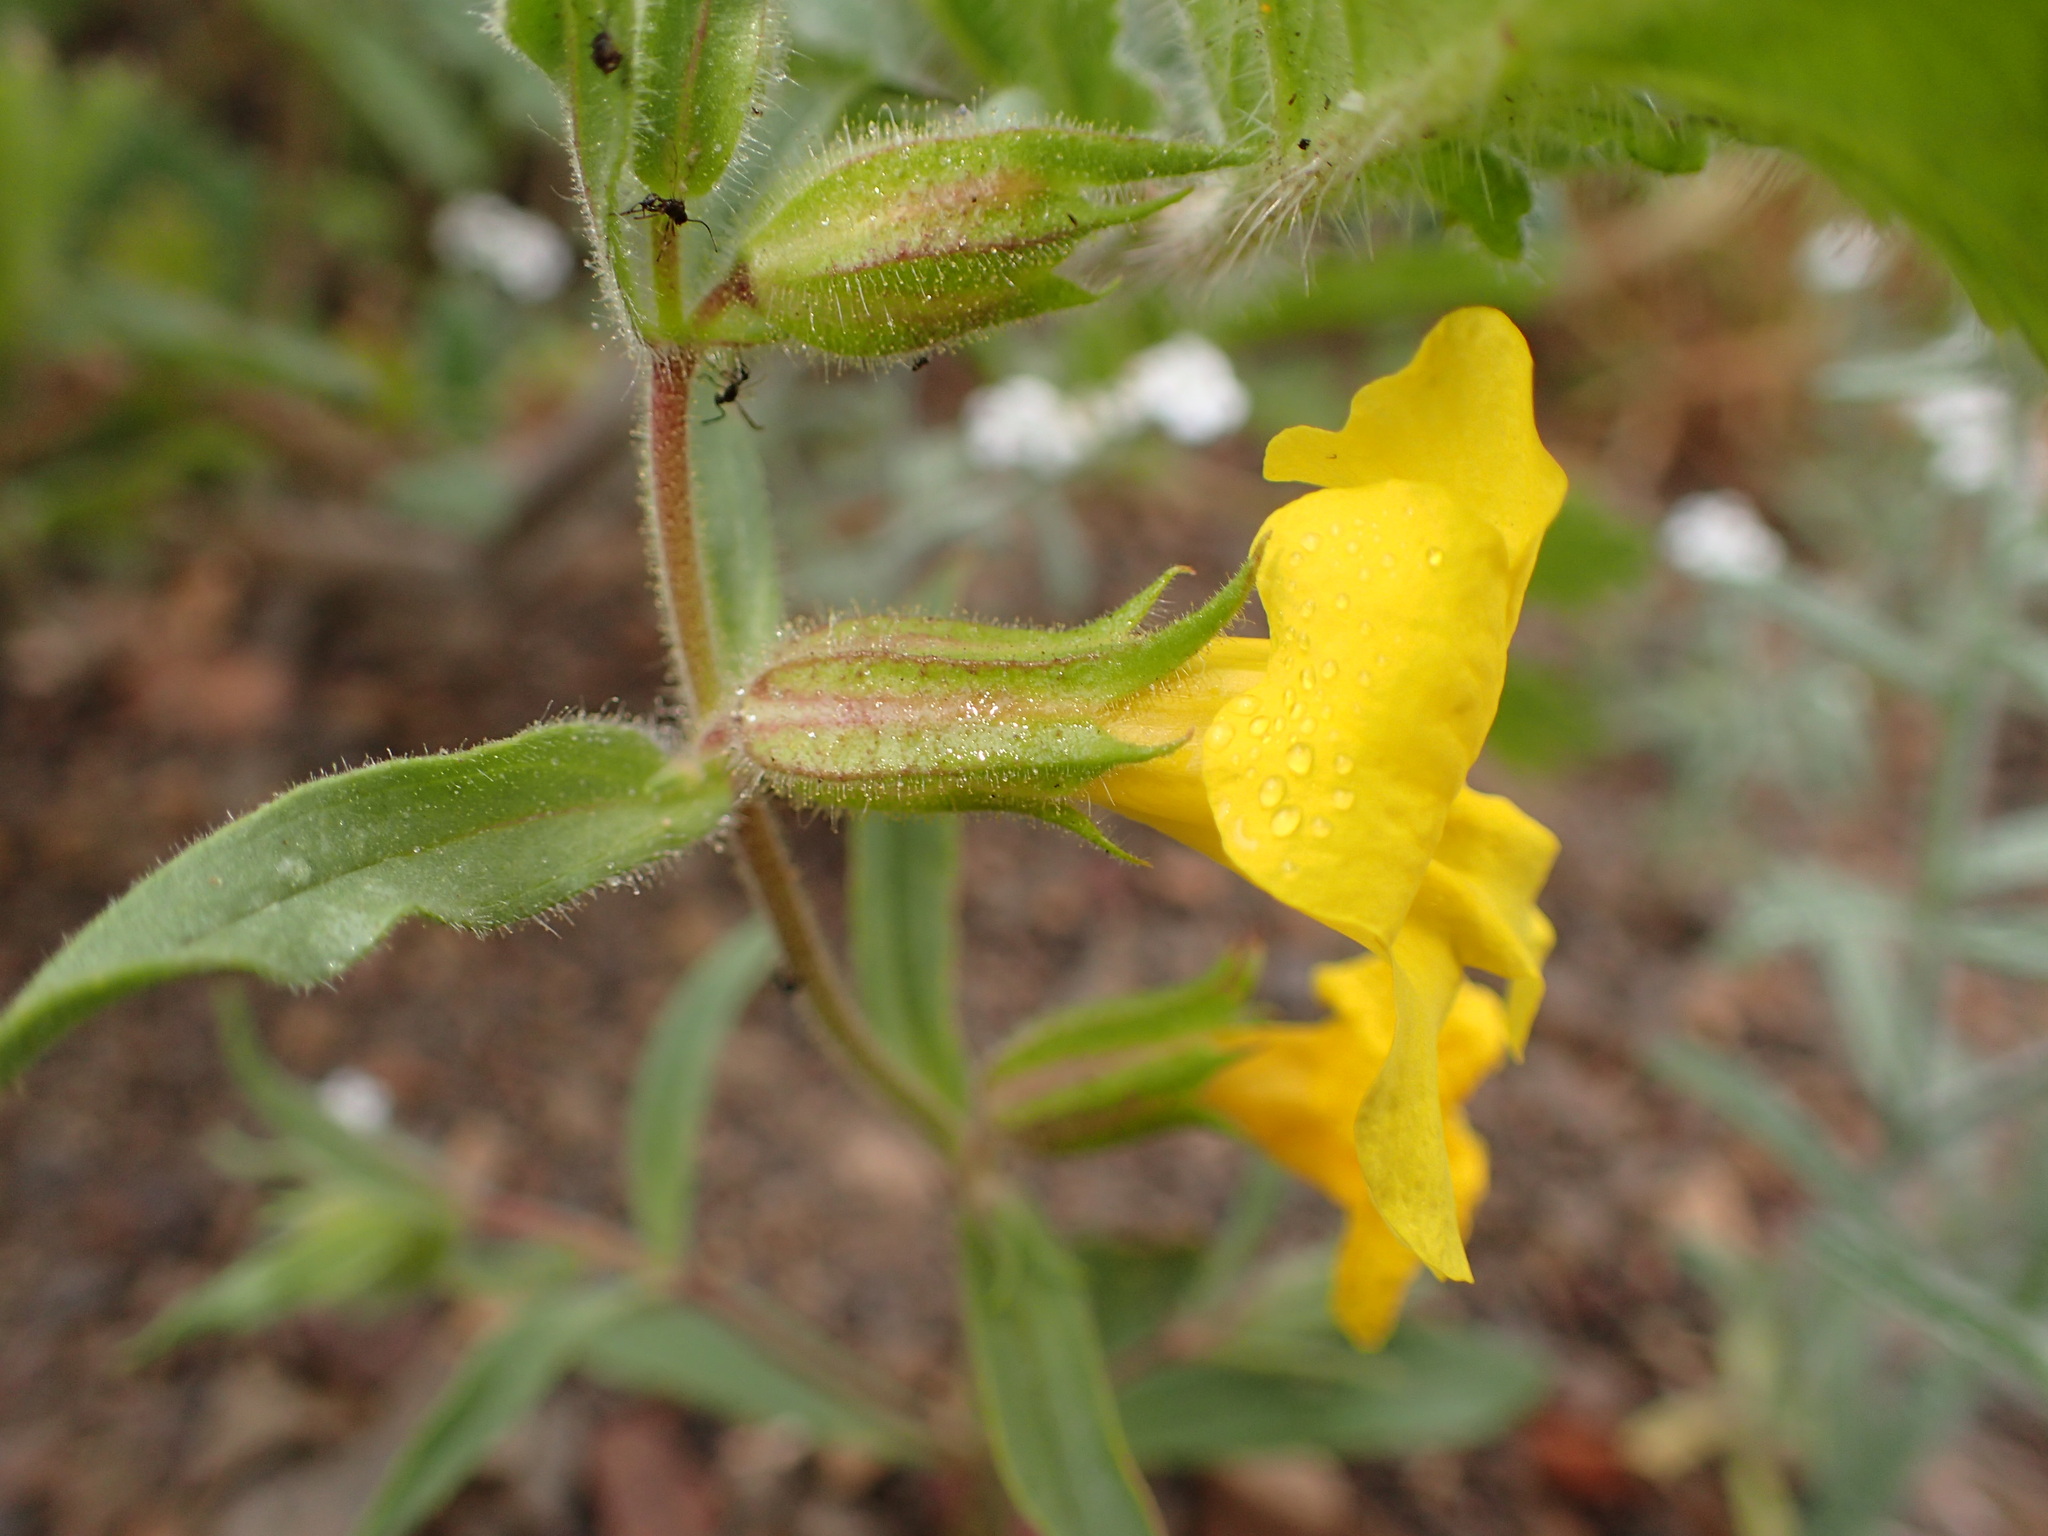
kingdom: Plantae
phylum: Tracheophyta
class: Magnoliopsida
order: Lamiales
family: Phrymaceae
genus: Diplacus
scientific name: Diplacus brevipes
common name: Wide-throat yellow monkey-flower
